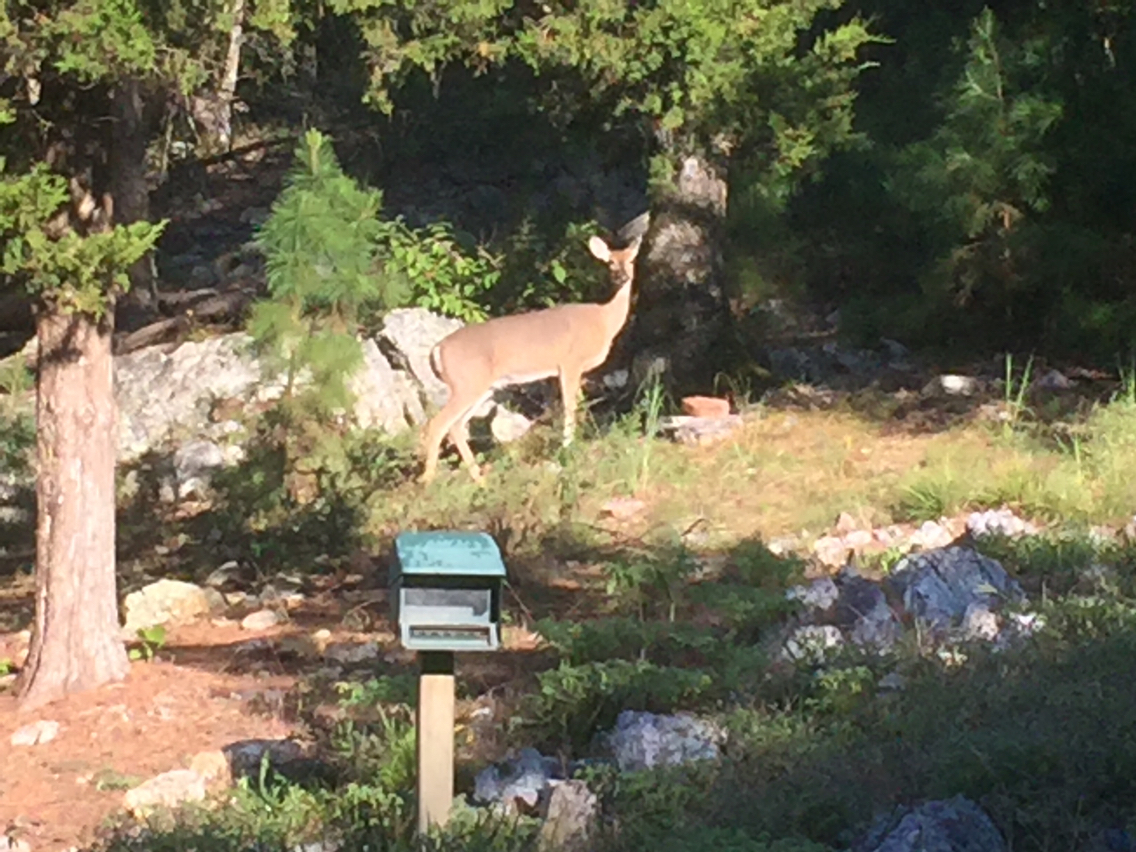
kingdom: Animalia
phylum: Chordata
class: Mammalia
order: Artiodactyla
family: Cervidae
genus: Odocoileus
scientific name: Odocoileus virginianus
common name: White-tailed deer
